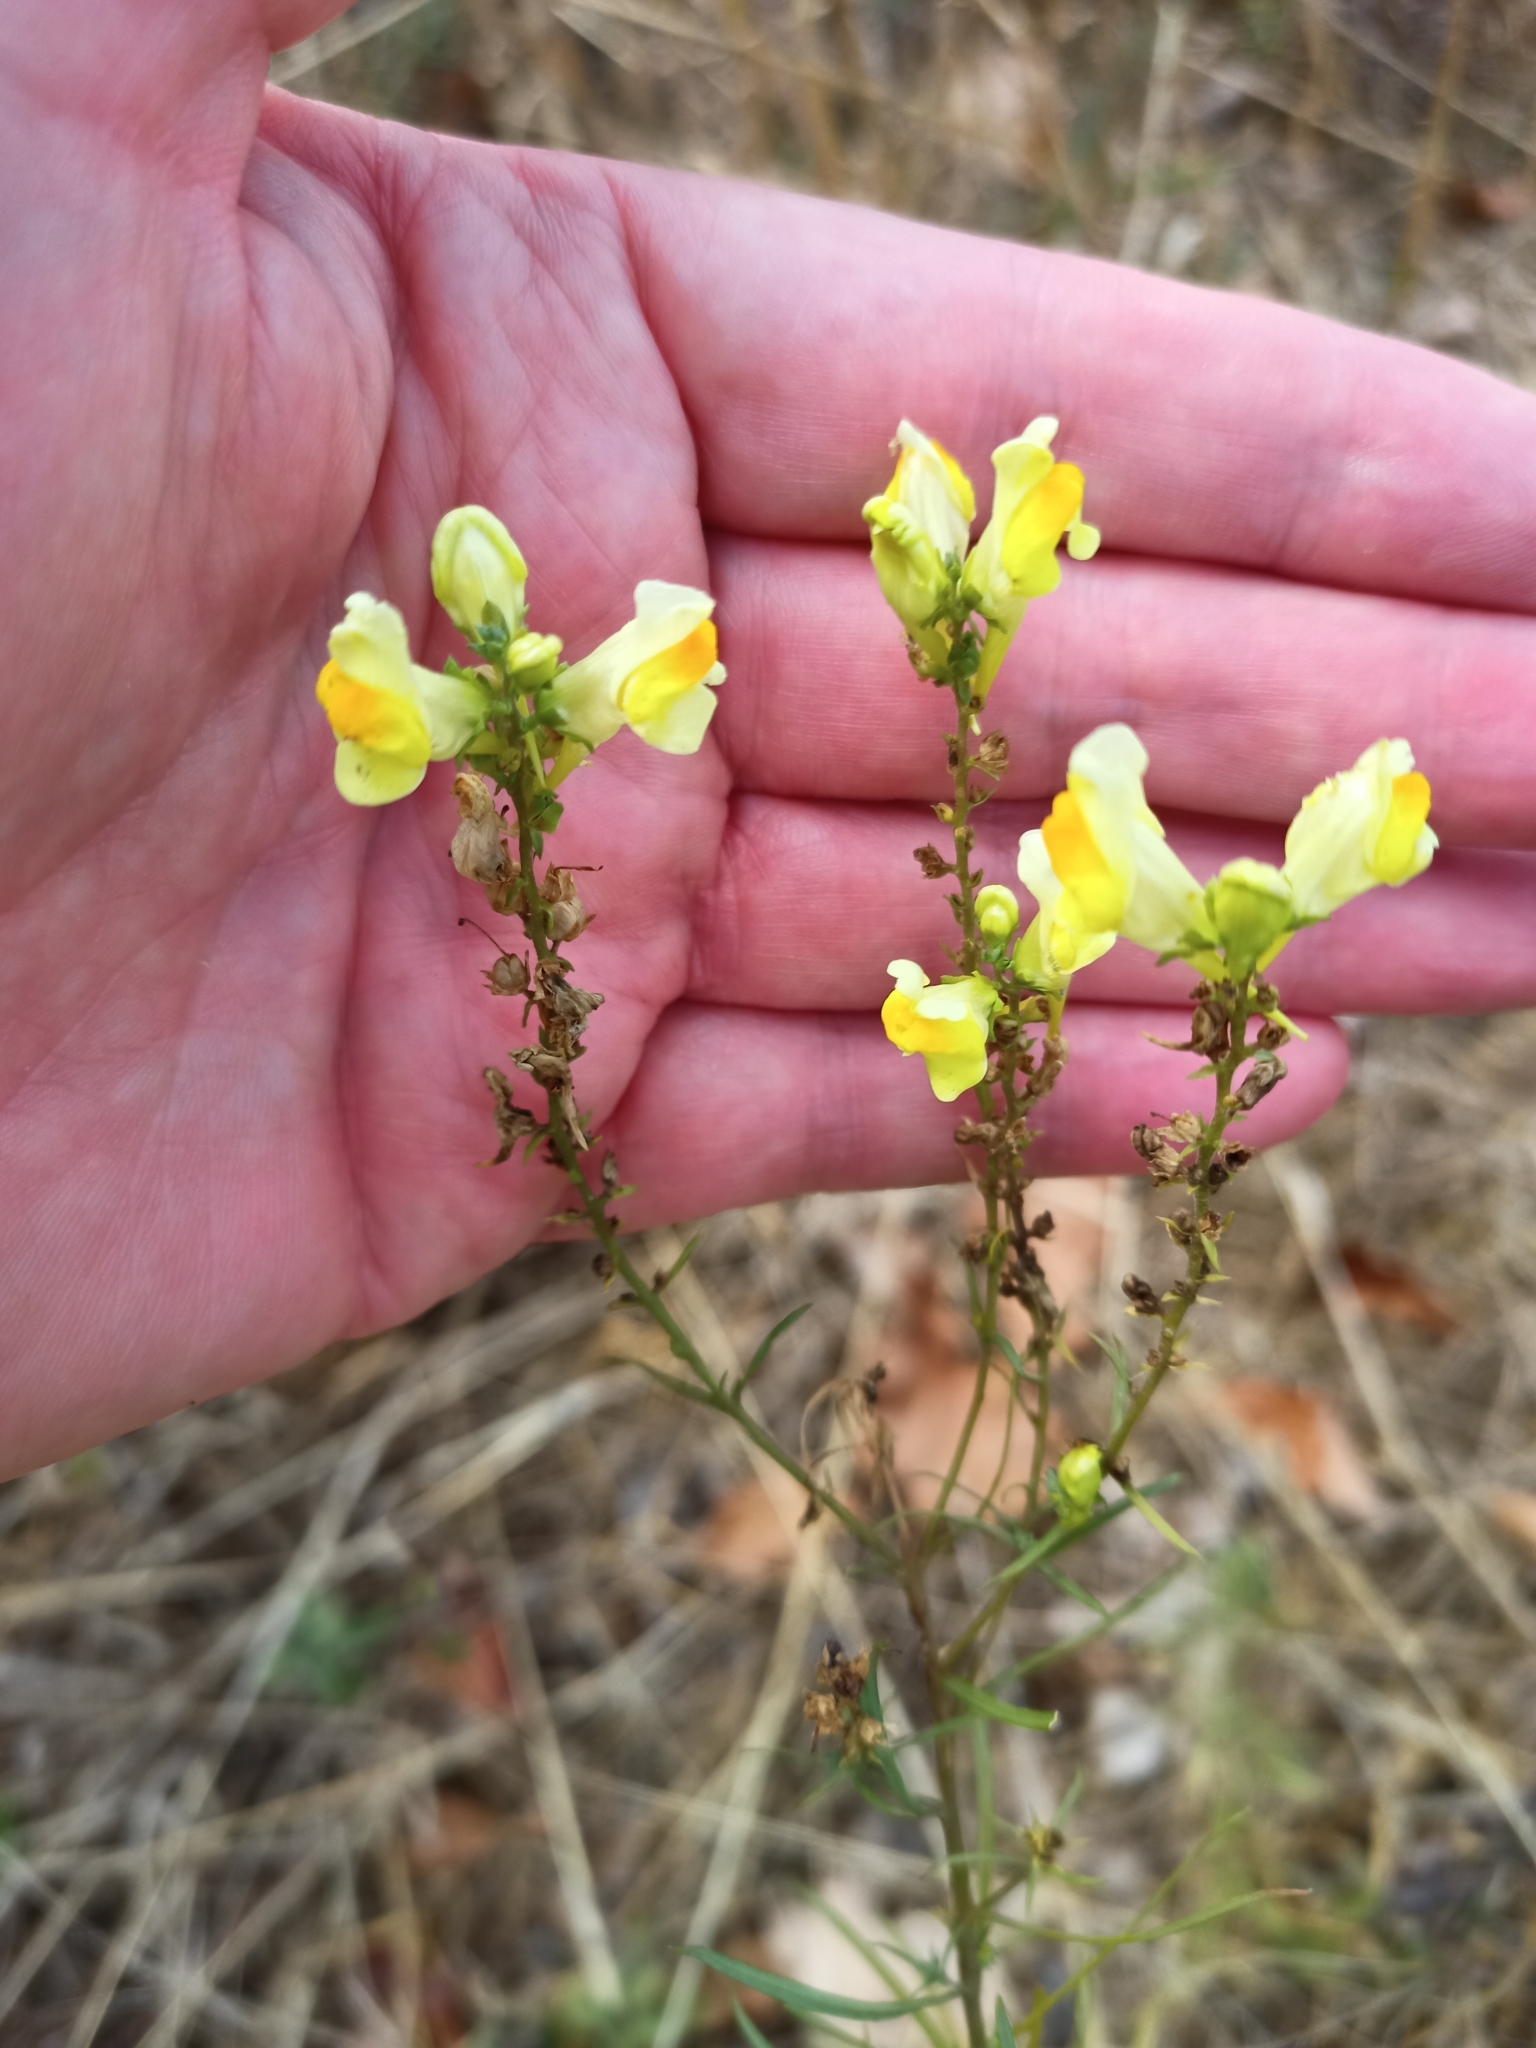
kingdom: Plantae
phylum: Tracheophyta
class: Magnoliopsida
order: Lamiales
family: Plantaginaceae
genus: Linaria
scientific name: Linaria vulgaris
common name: Butter and eggs
